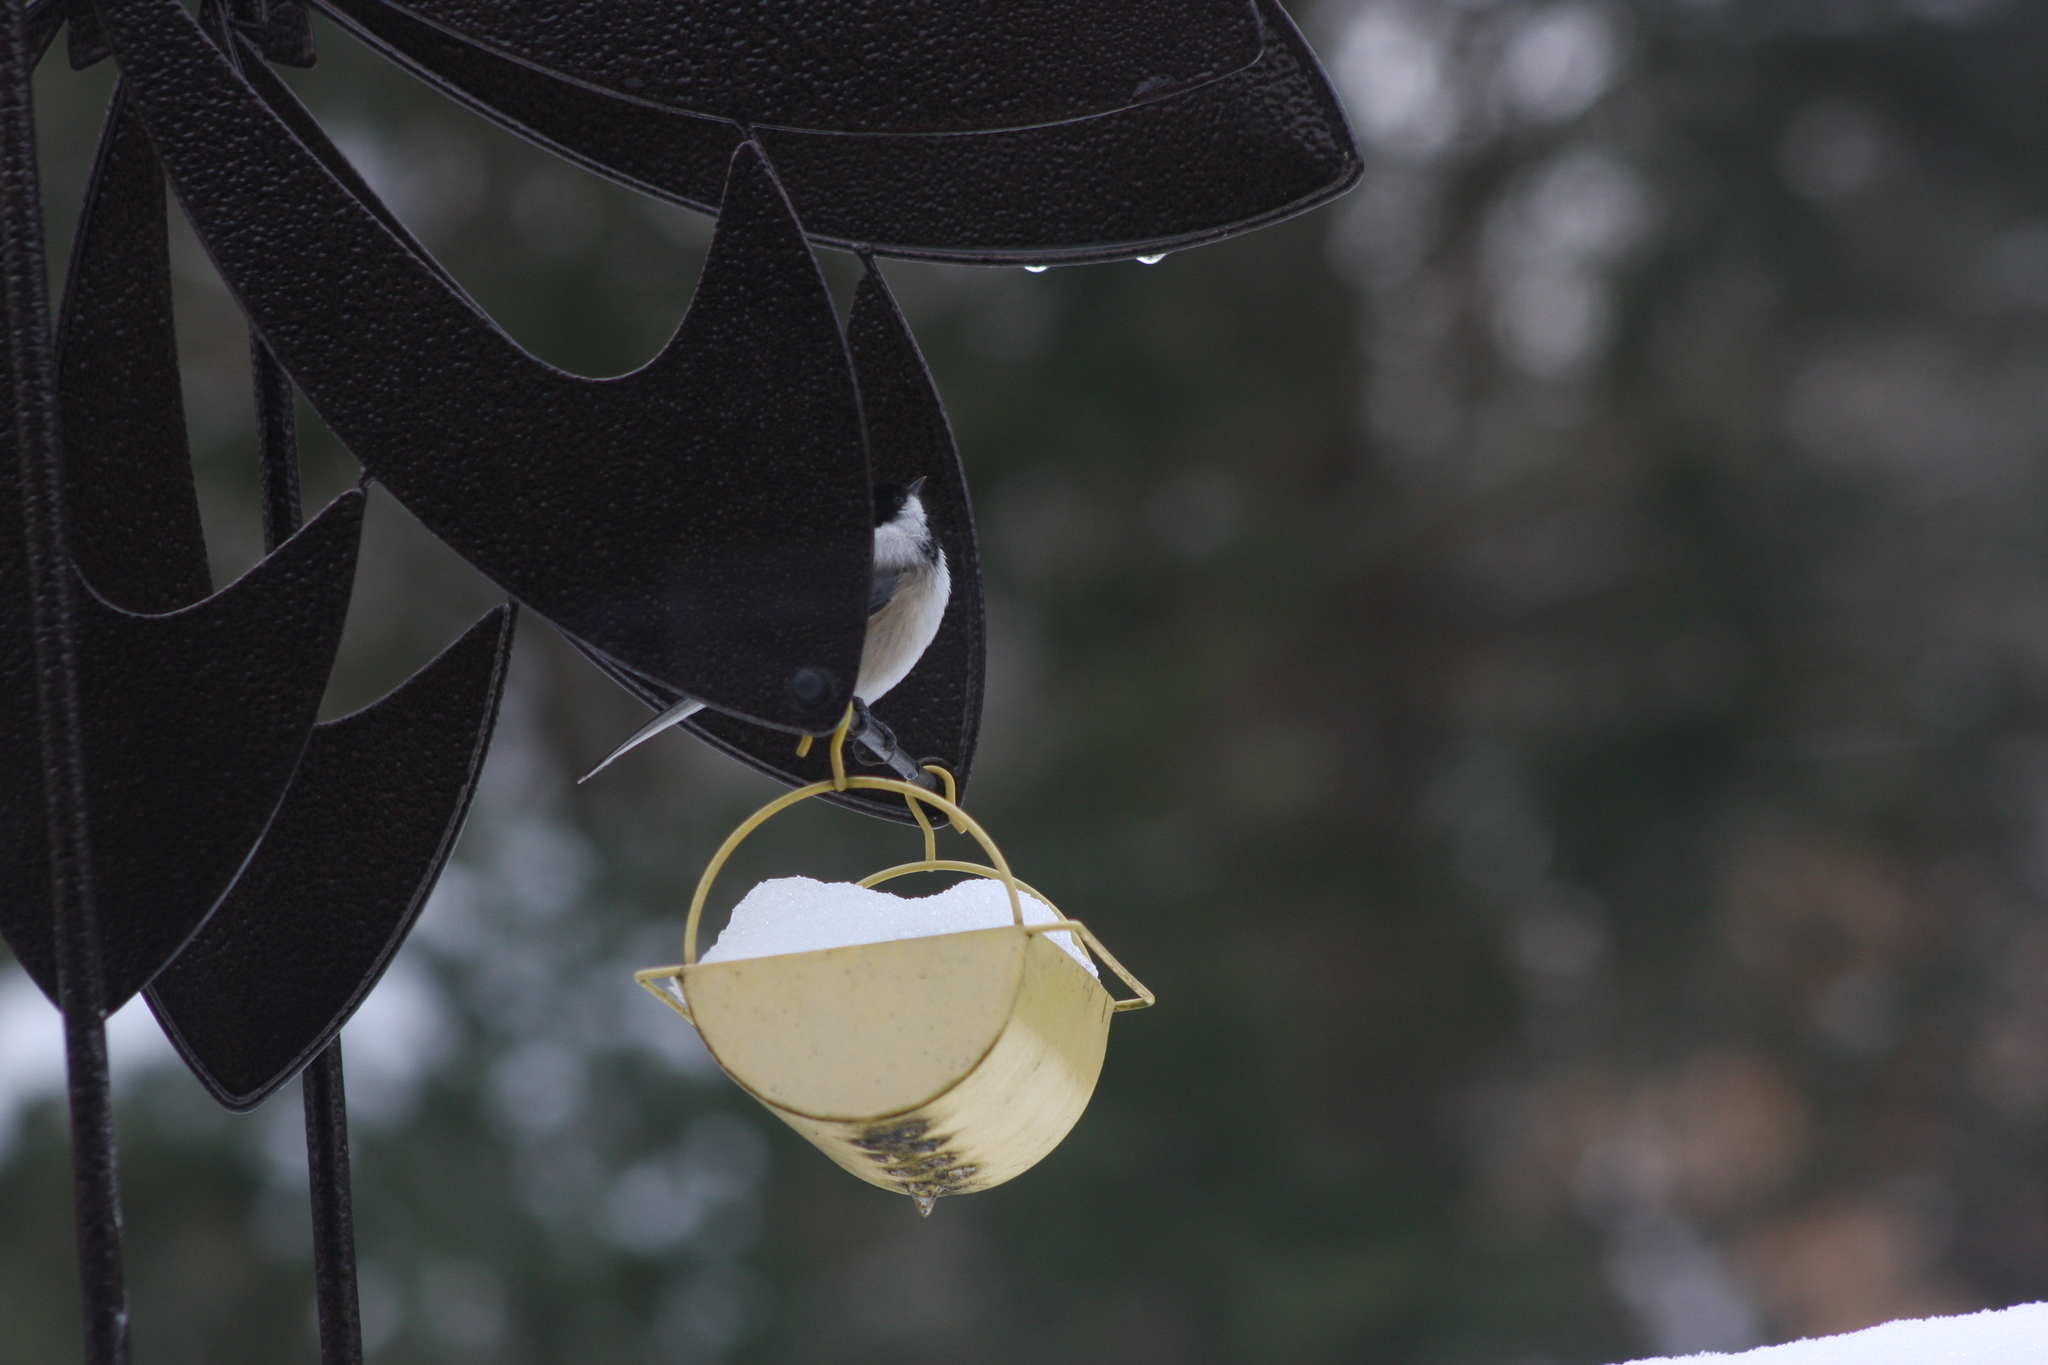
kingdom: Animalia
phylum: Chordata
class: Aves
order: Passeriformes
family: Paridae
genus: Poecile
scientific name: Poecile atricapillus
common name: Black-capped chickadee
